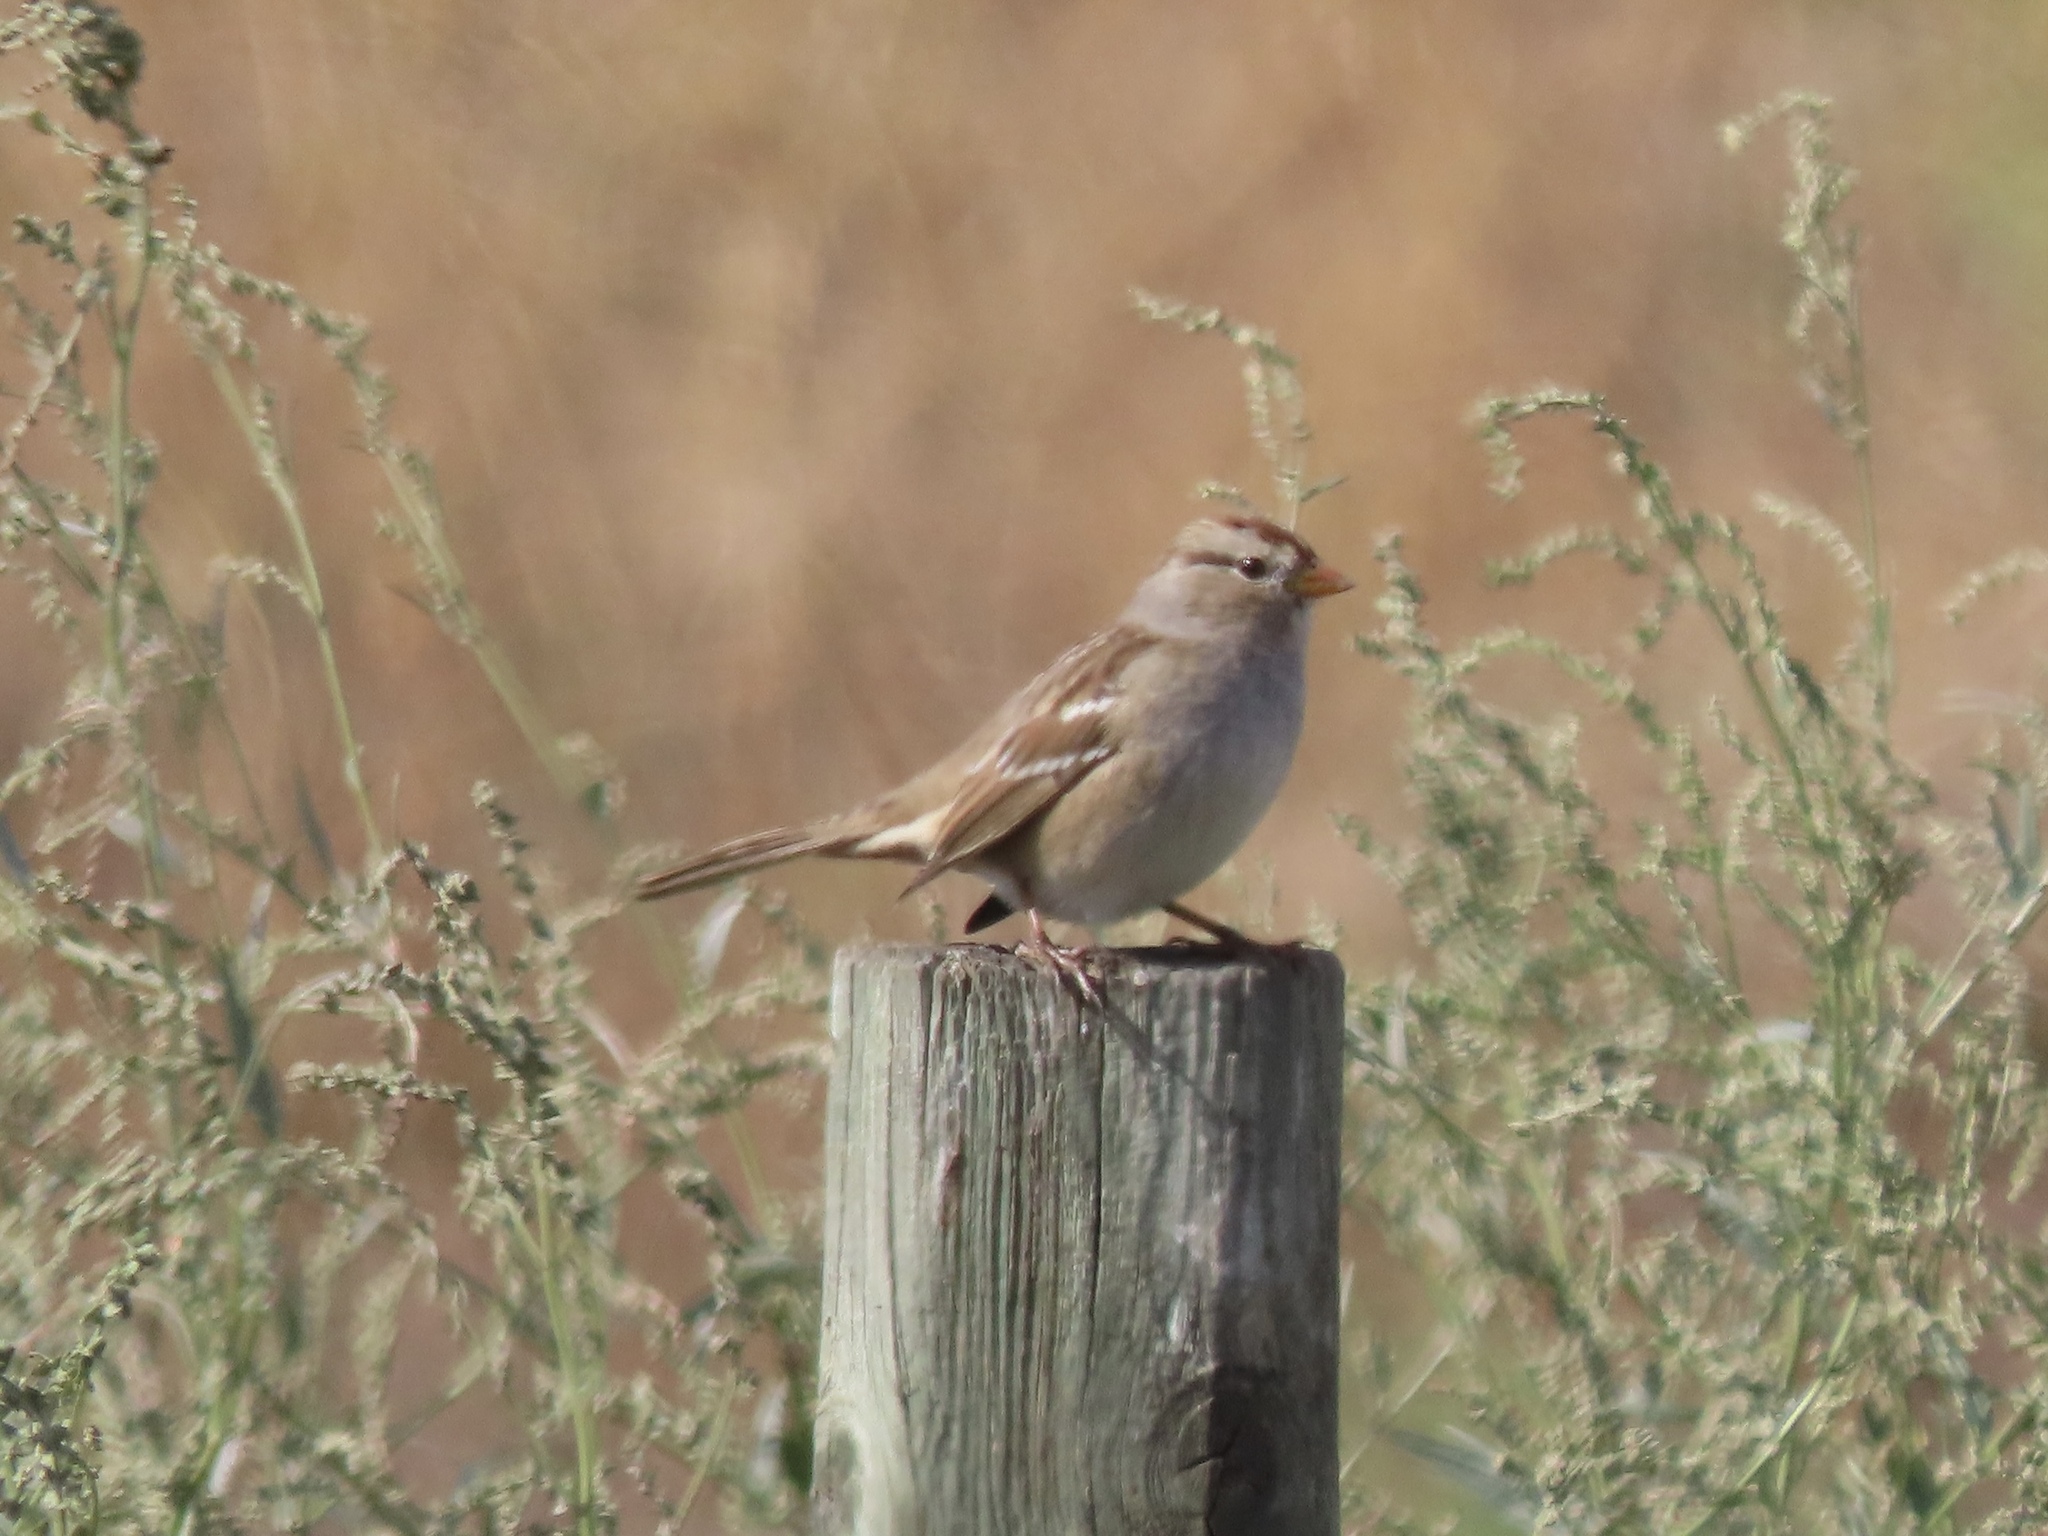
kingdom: Animalia
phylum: Chordata
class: Aves
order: Passeriformes
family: Passerellidae
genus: Zonotrichia
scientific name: Zonotrichia leucophrys
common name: White-crowned sparrow
